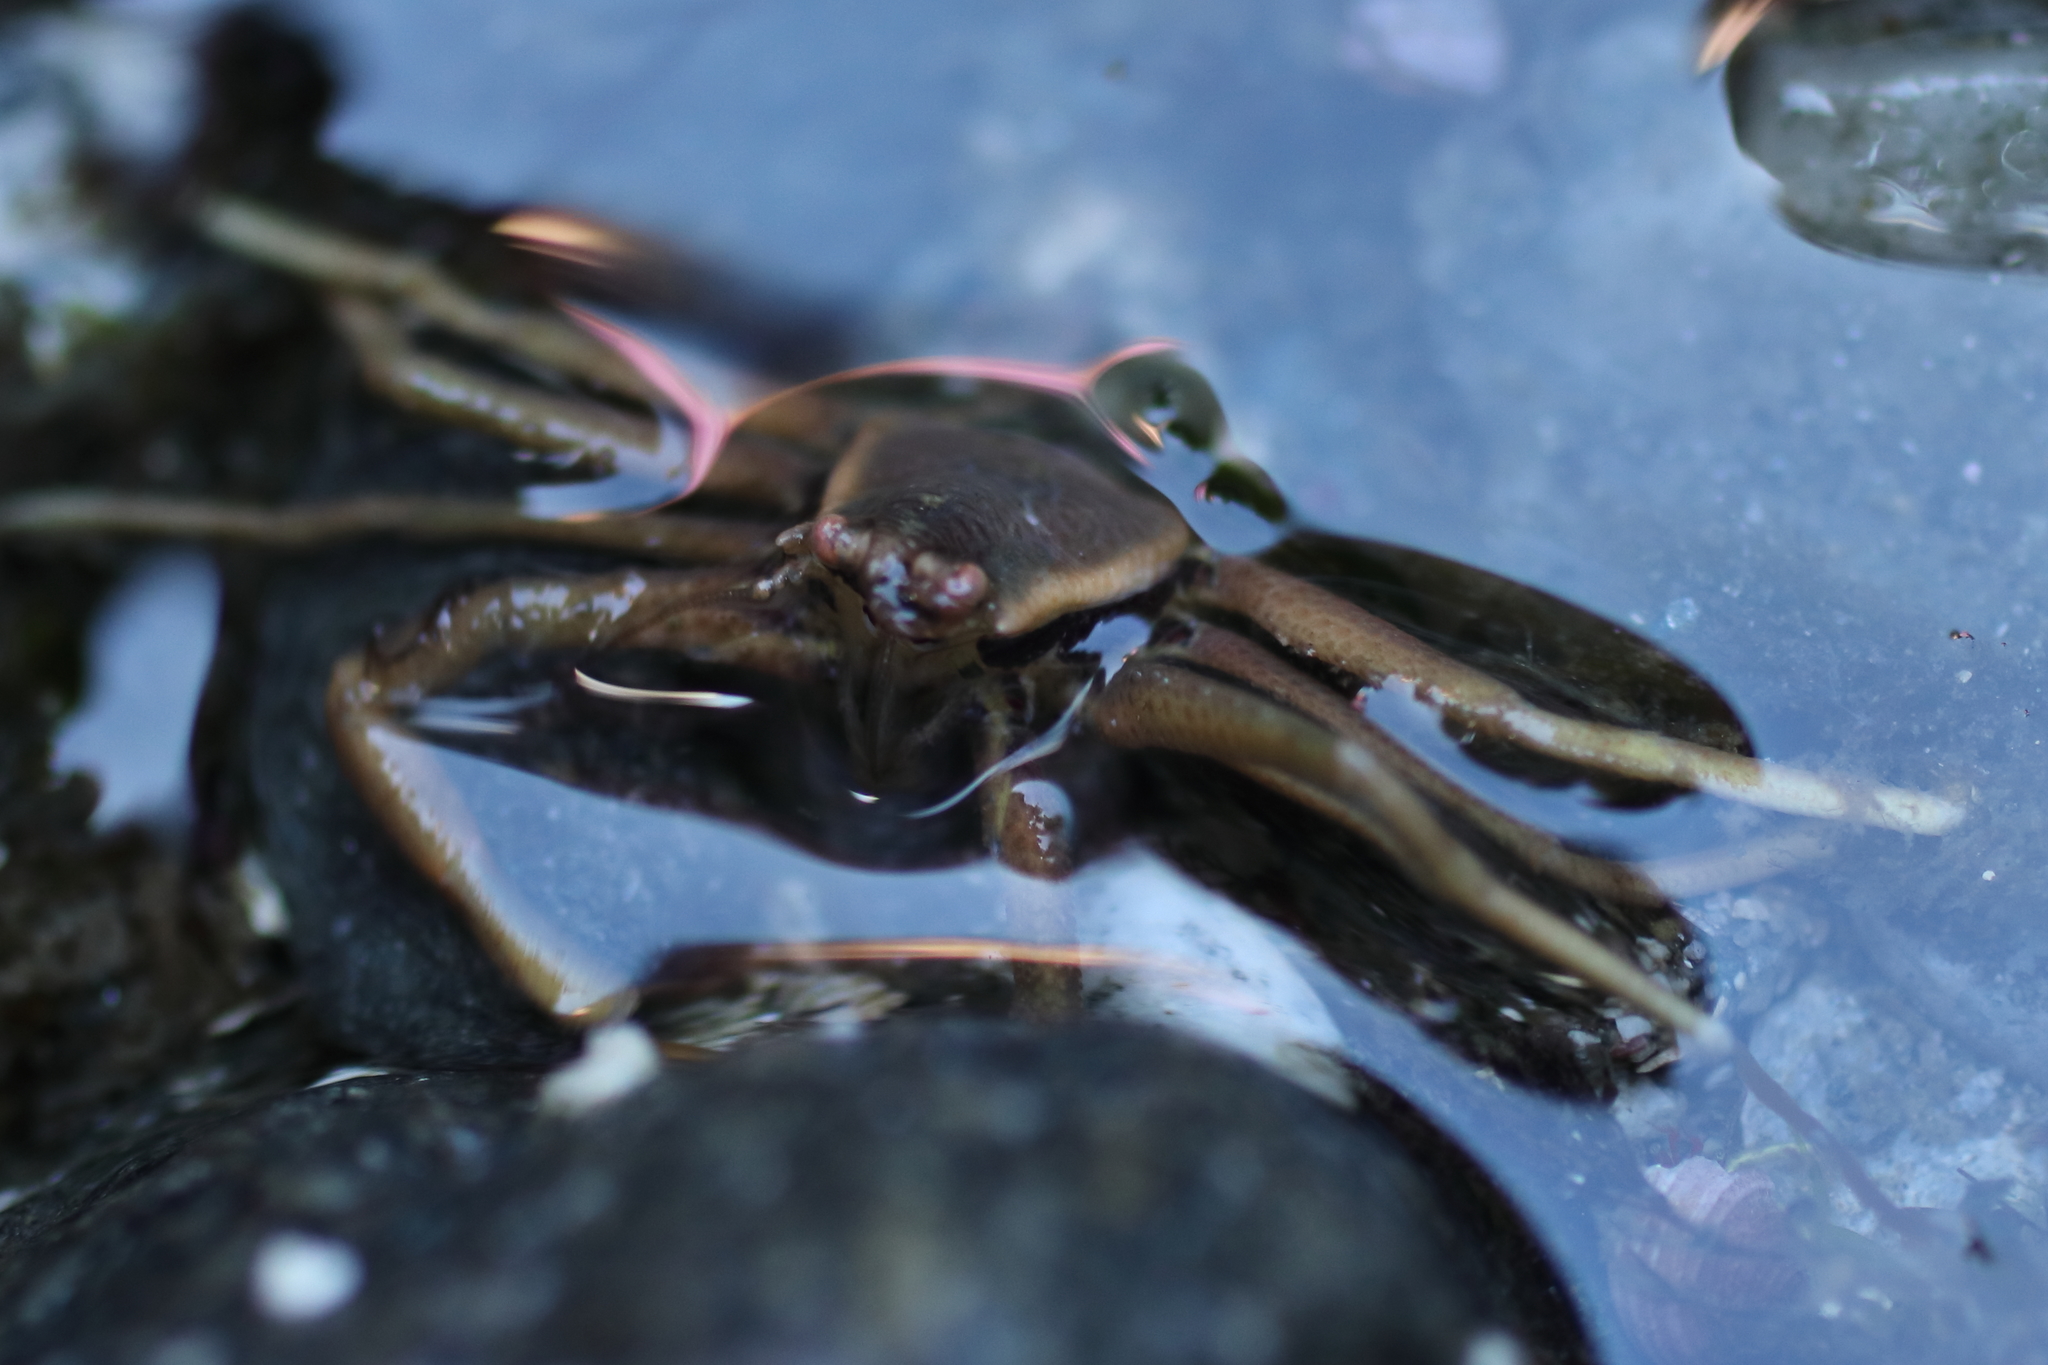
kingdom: Animalia
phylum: Arthropoda
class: Malacostraca
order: Decapoda
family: Hapalogastridae
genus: Placetron
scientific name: Placetron wosnessenskii
